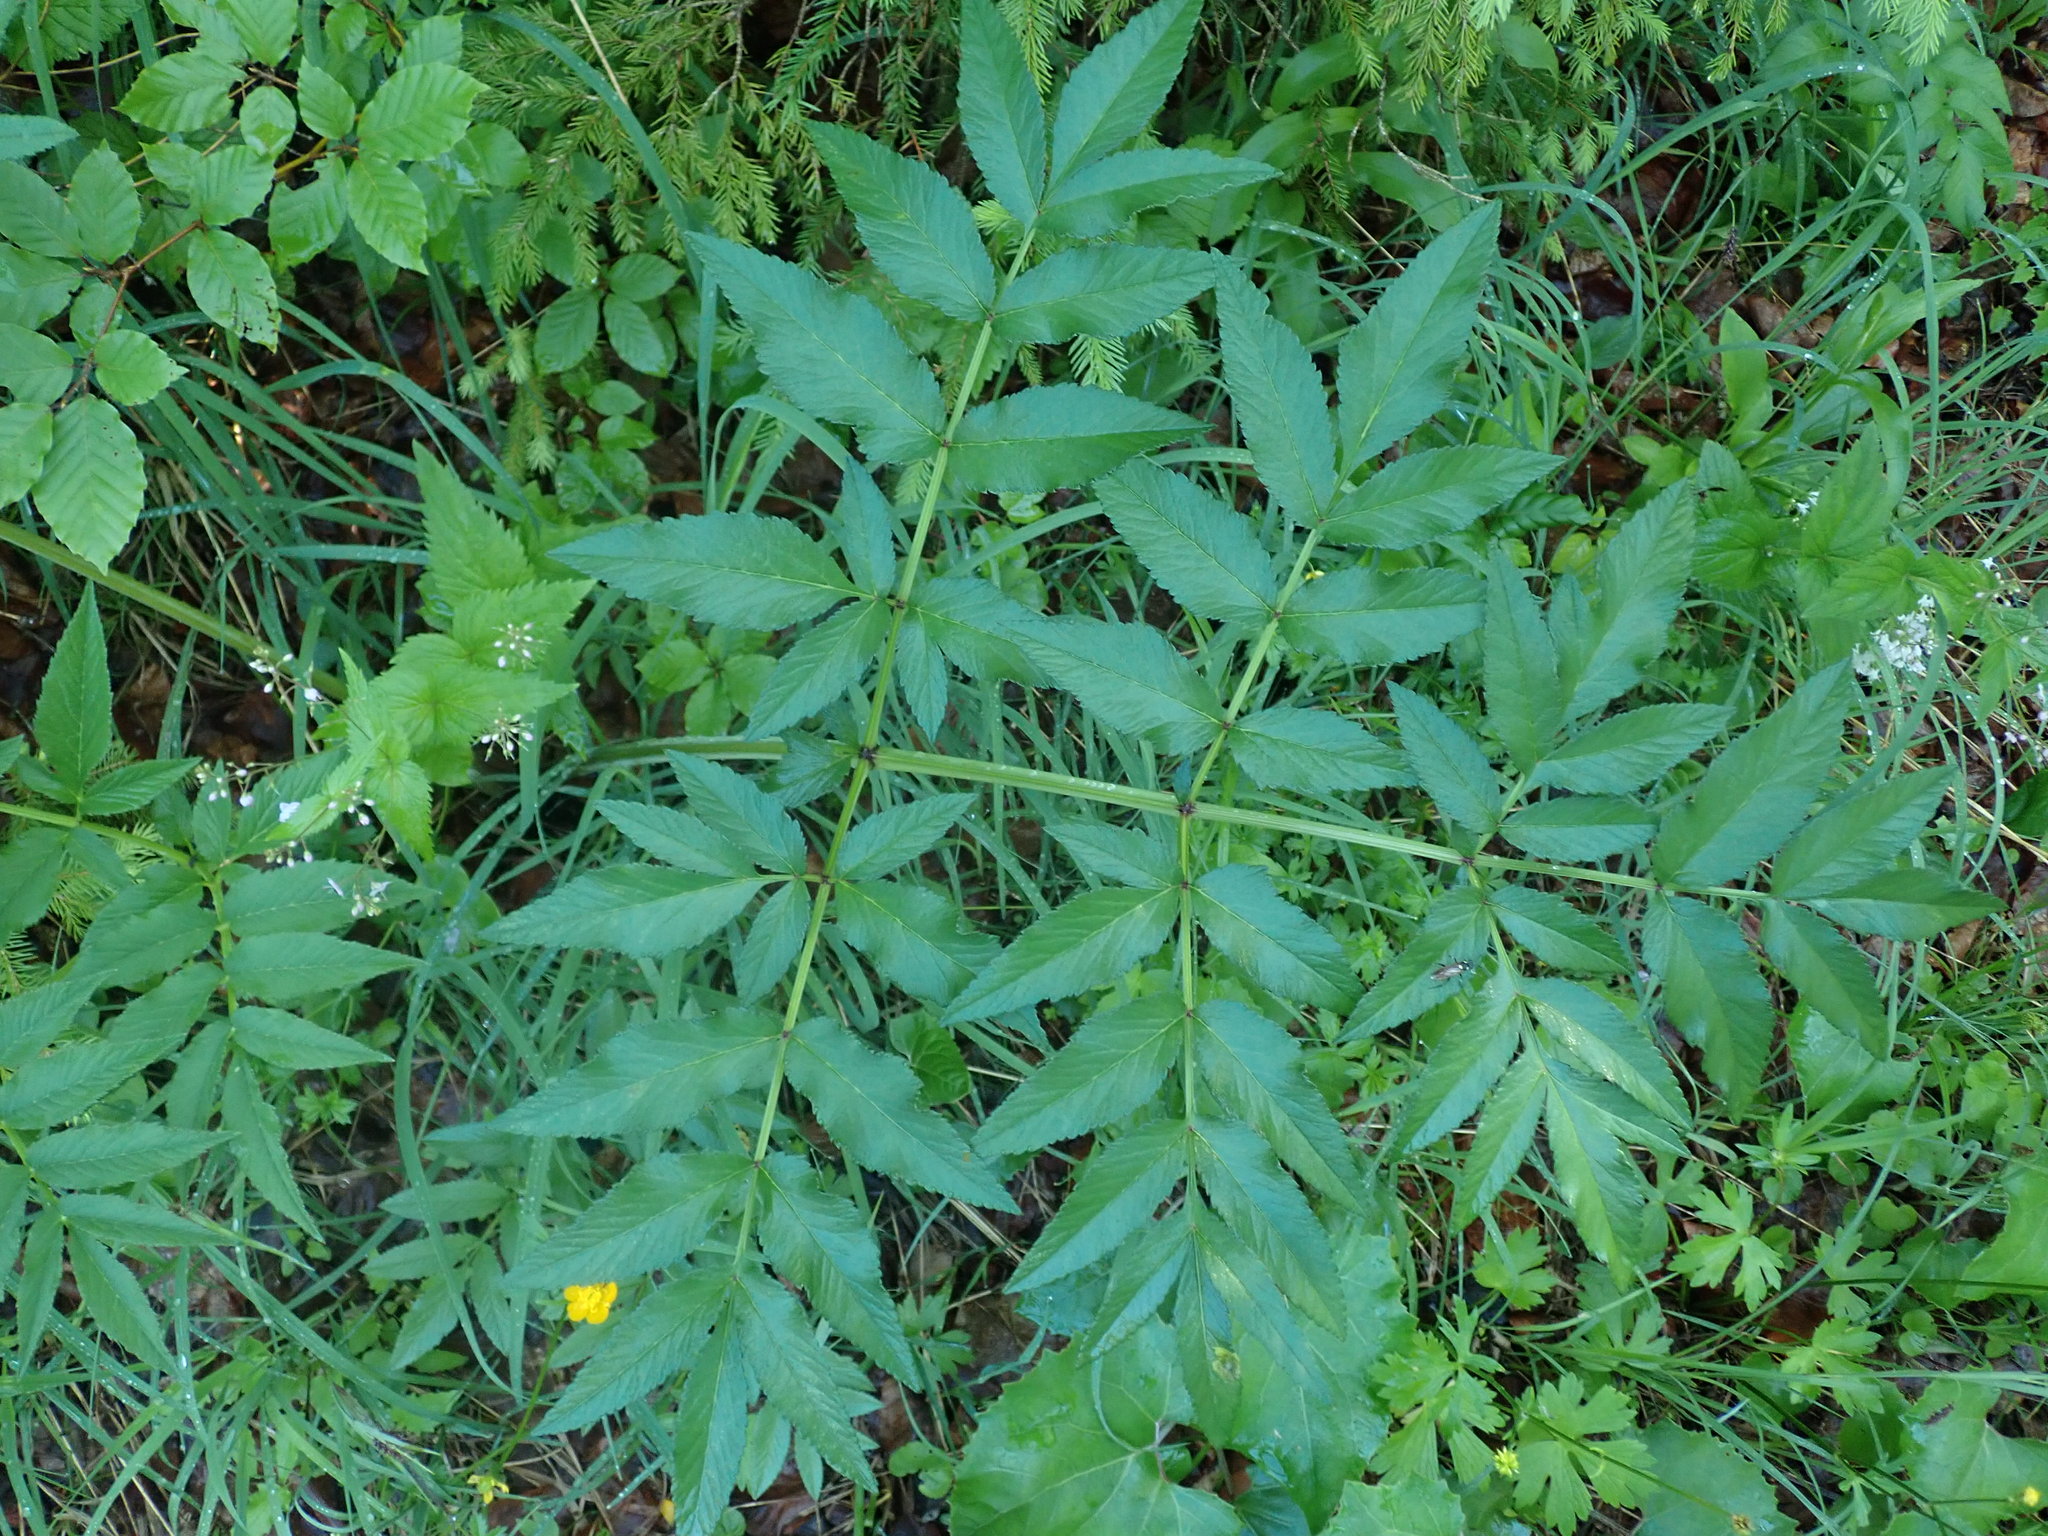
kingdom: Plantae
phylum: Tracheophyta
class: Magnoliopsida
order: Apiales
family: Apiaceae
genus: Angelica
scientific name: Angelica sylvestris
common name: Wild angelica
